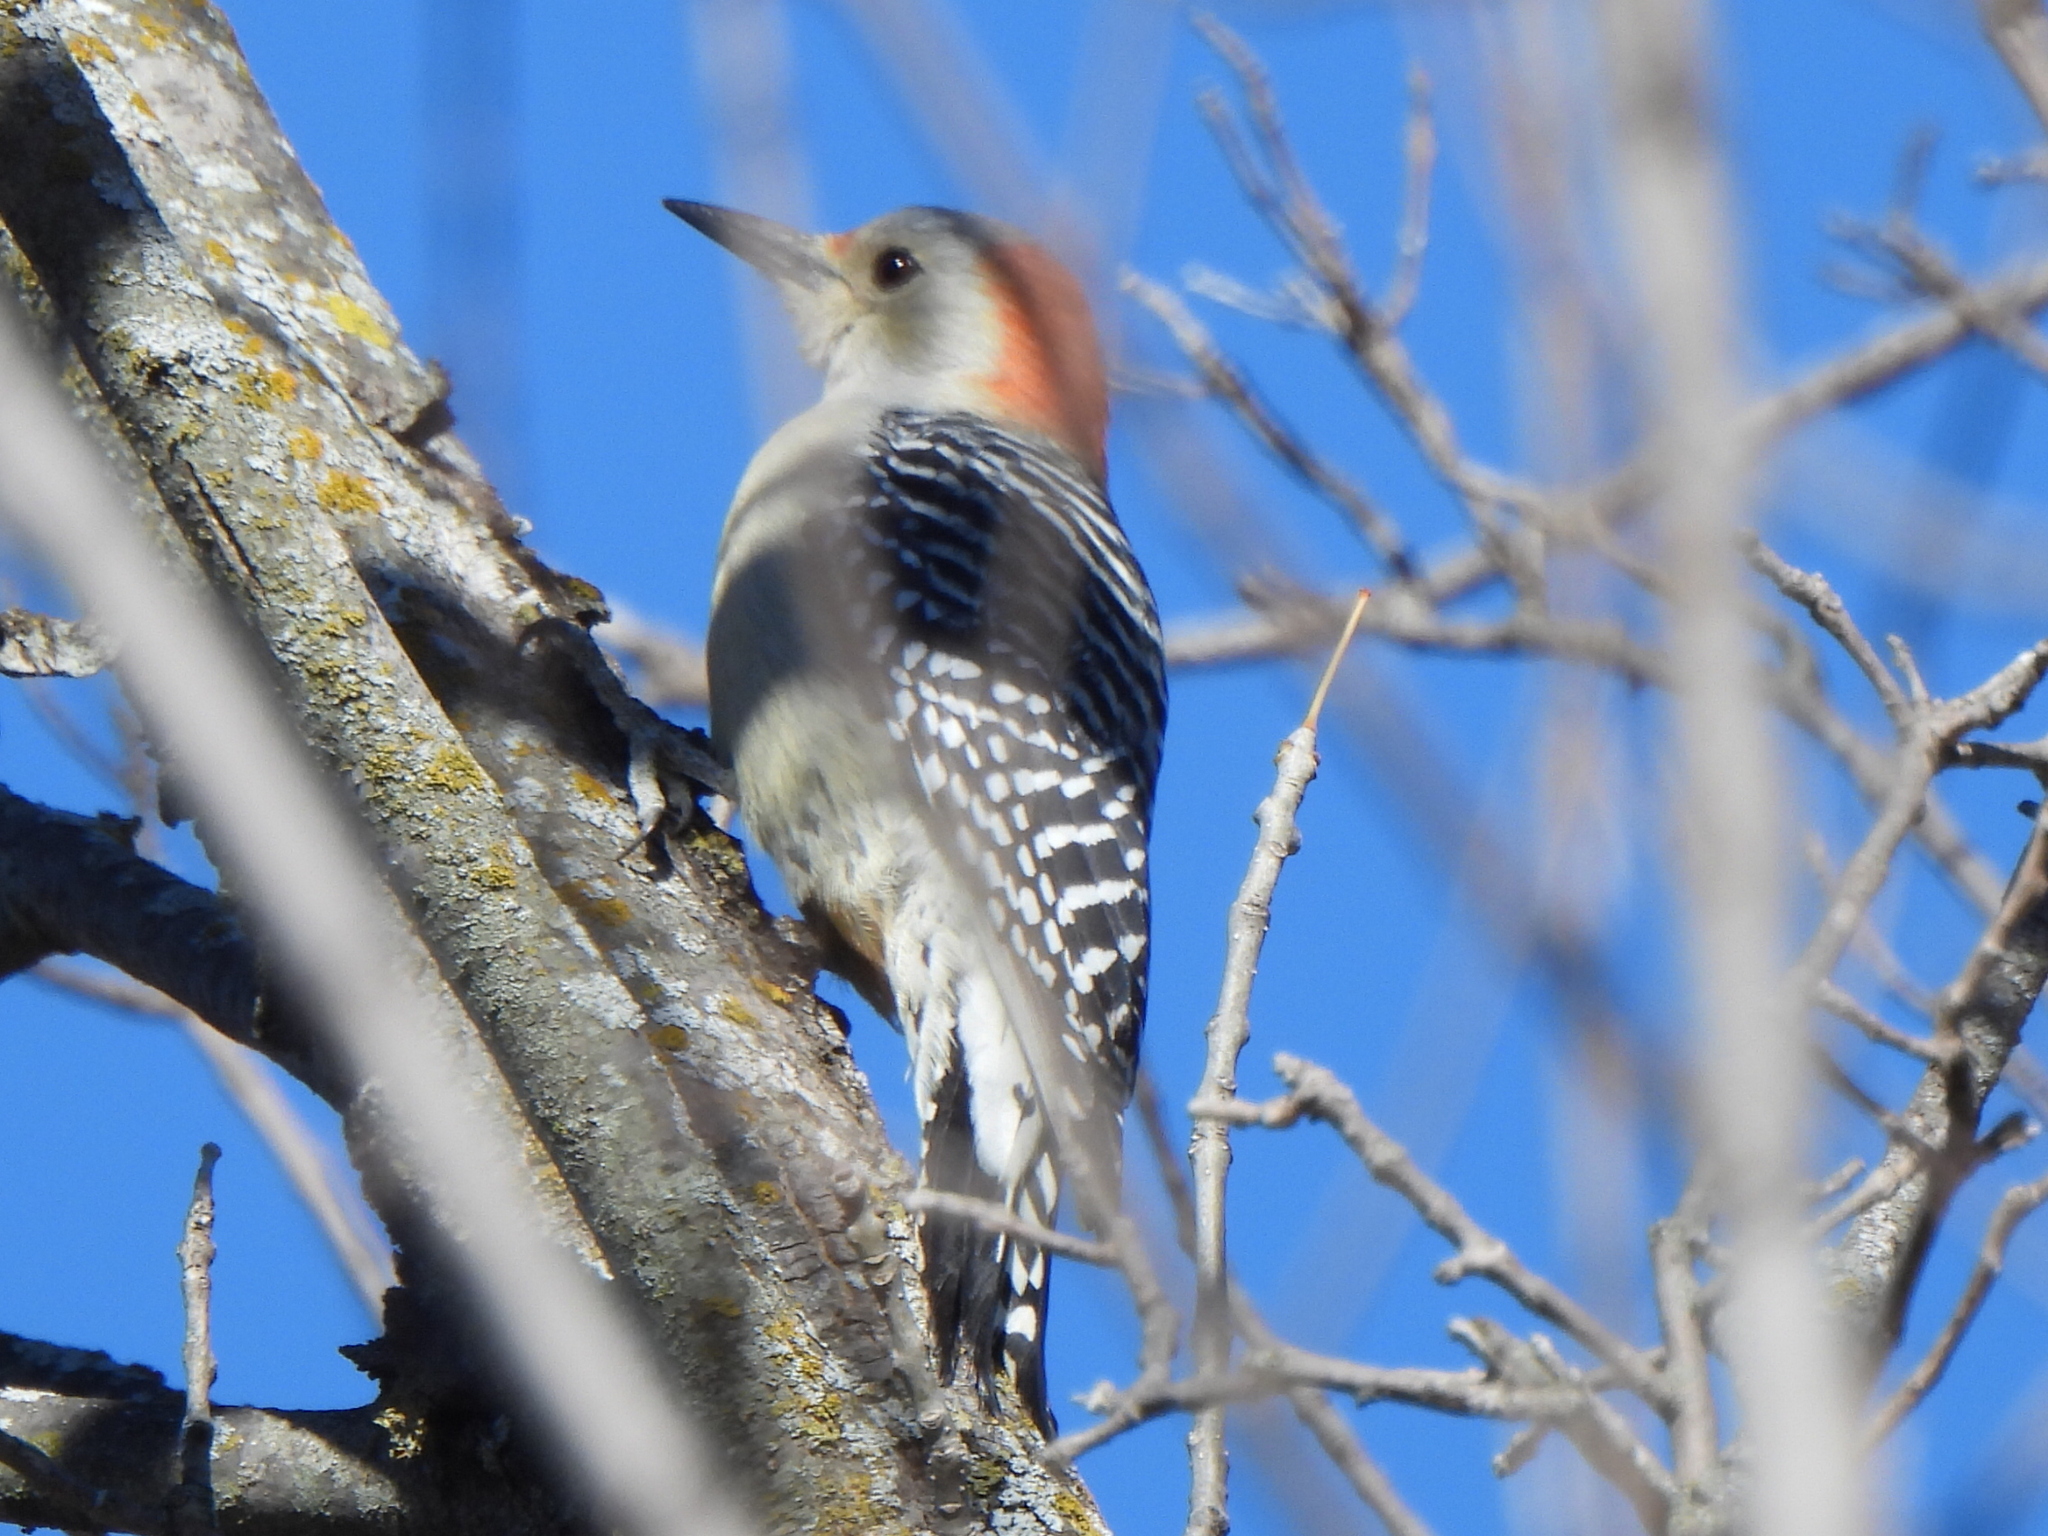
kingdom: Animalia
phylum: Chordata
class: Aves
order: Piciformes
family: Picidae
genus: Melanerpes
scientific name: Melanerpes carolinus
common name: Red-bellied woodpecker
